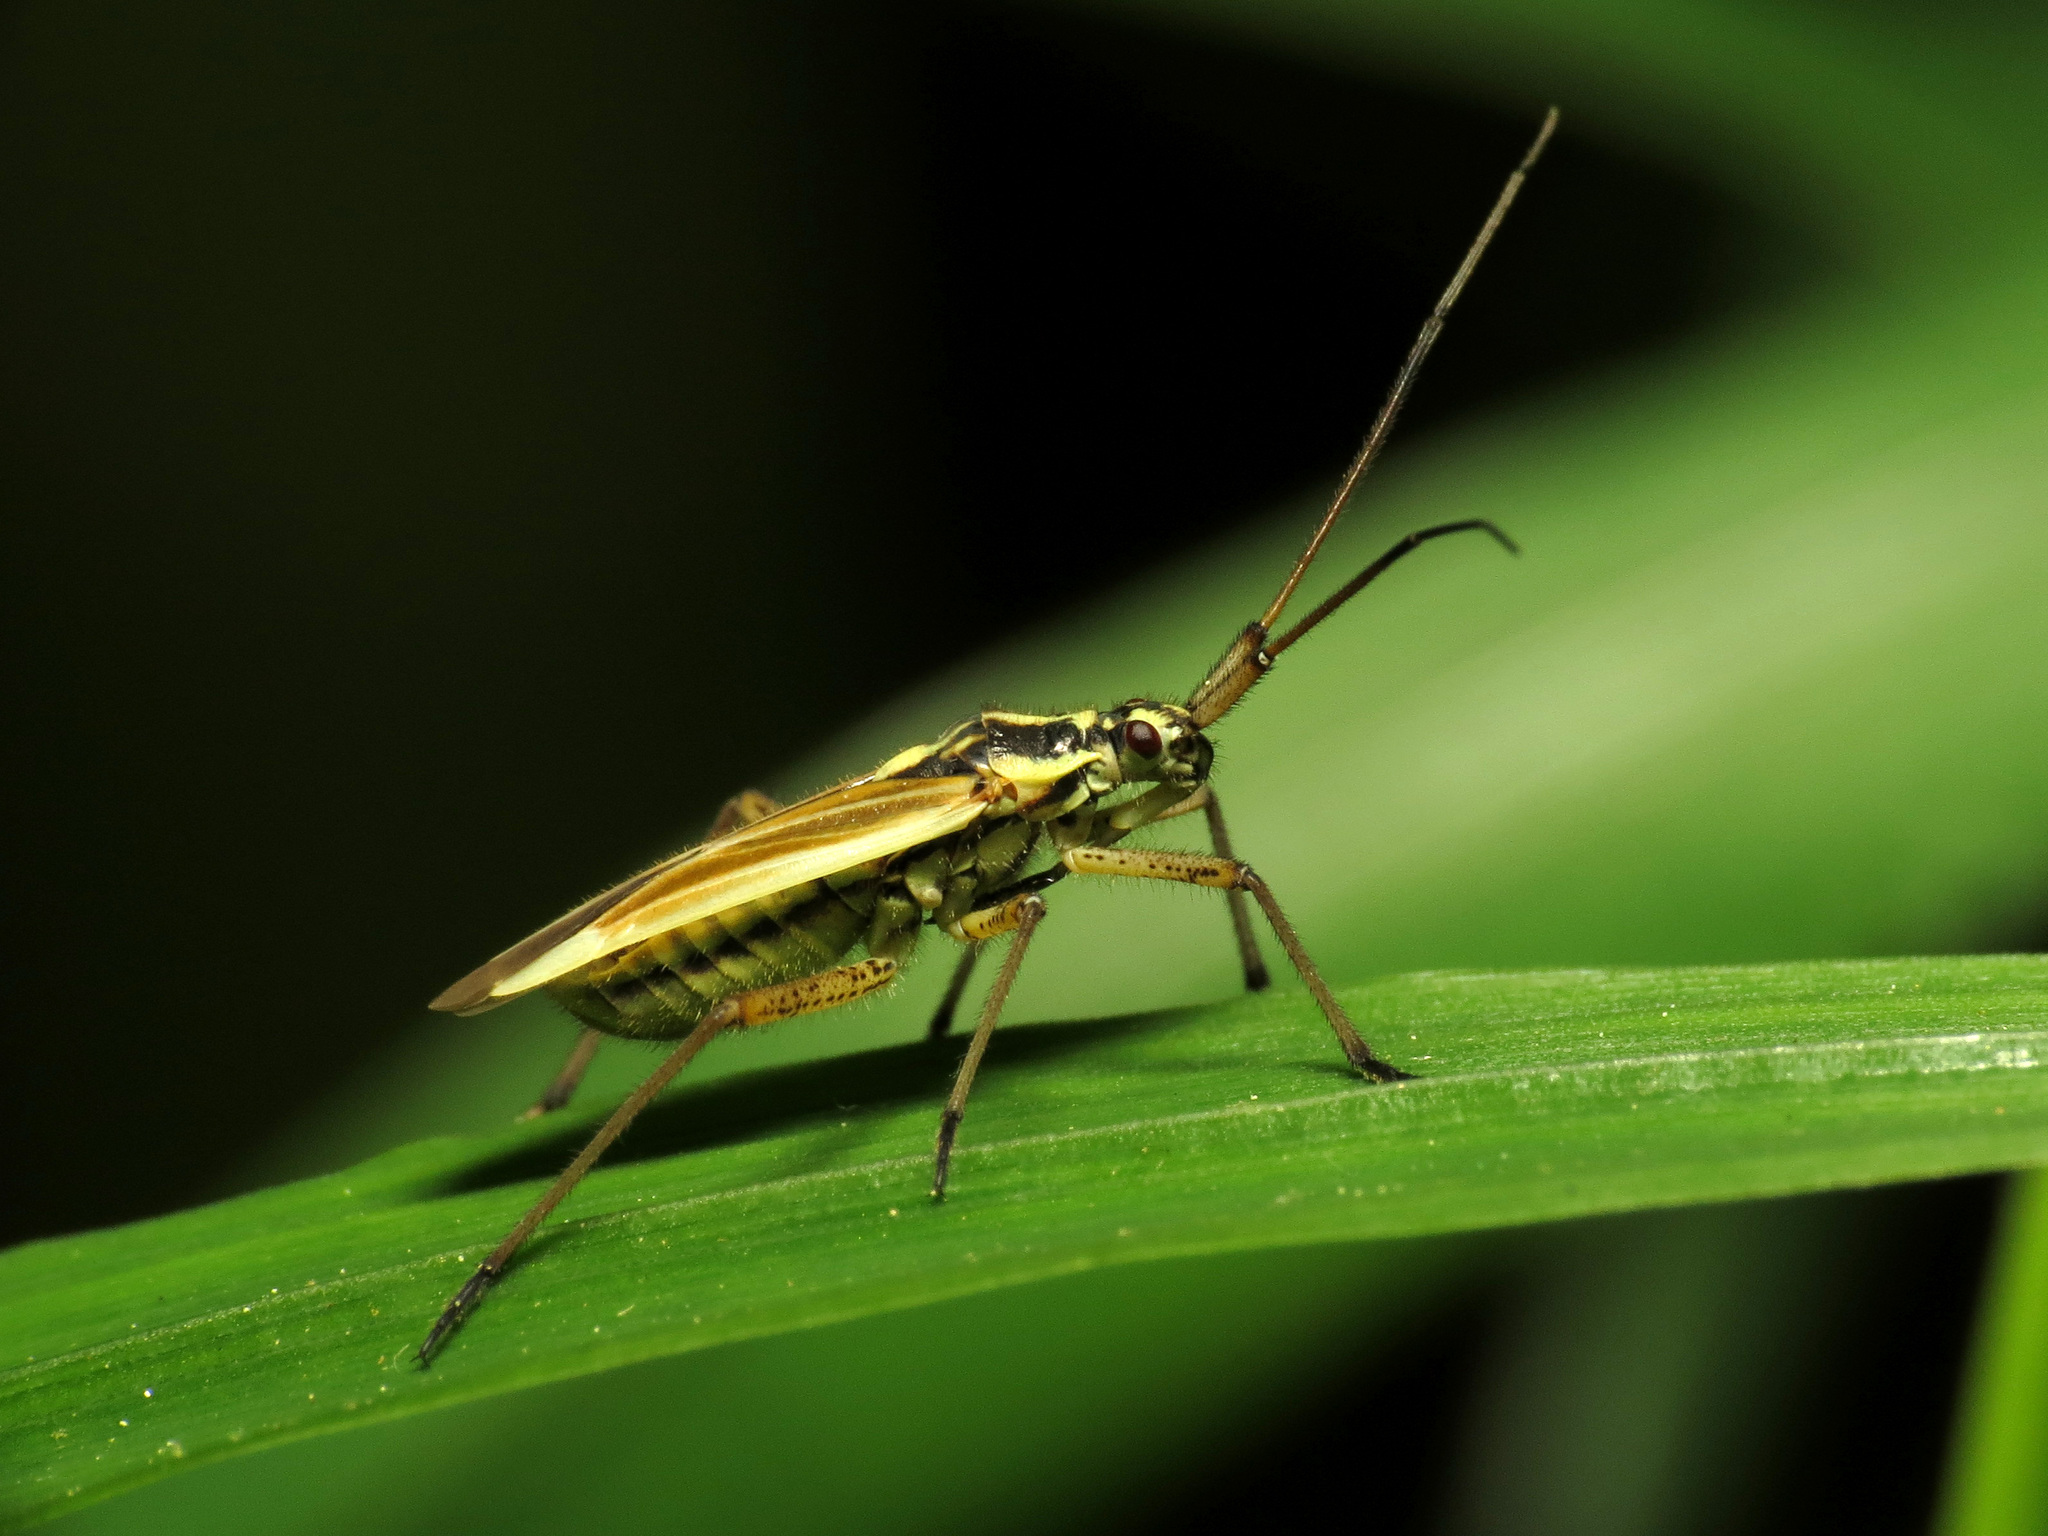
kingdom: Animalia
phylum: Arthropoda
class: Insecta
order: Hemiptera
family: Miridae
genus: Leptopterna
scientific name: Leptopterna dolabrata
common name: Meadow plant bug
